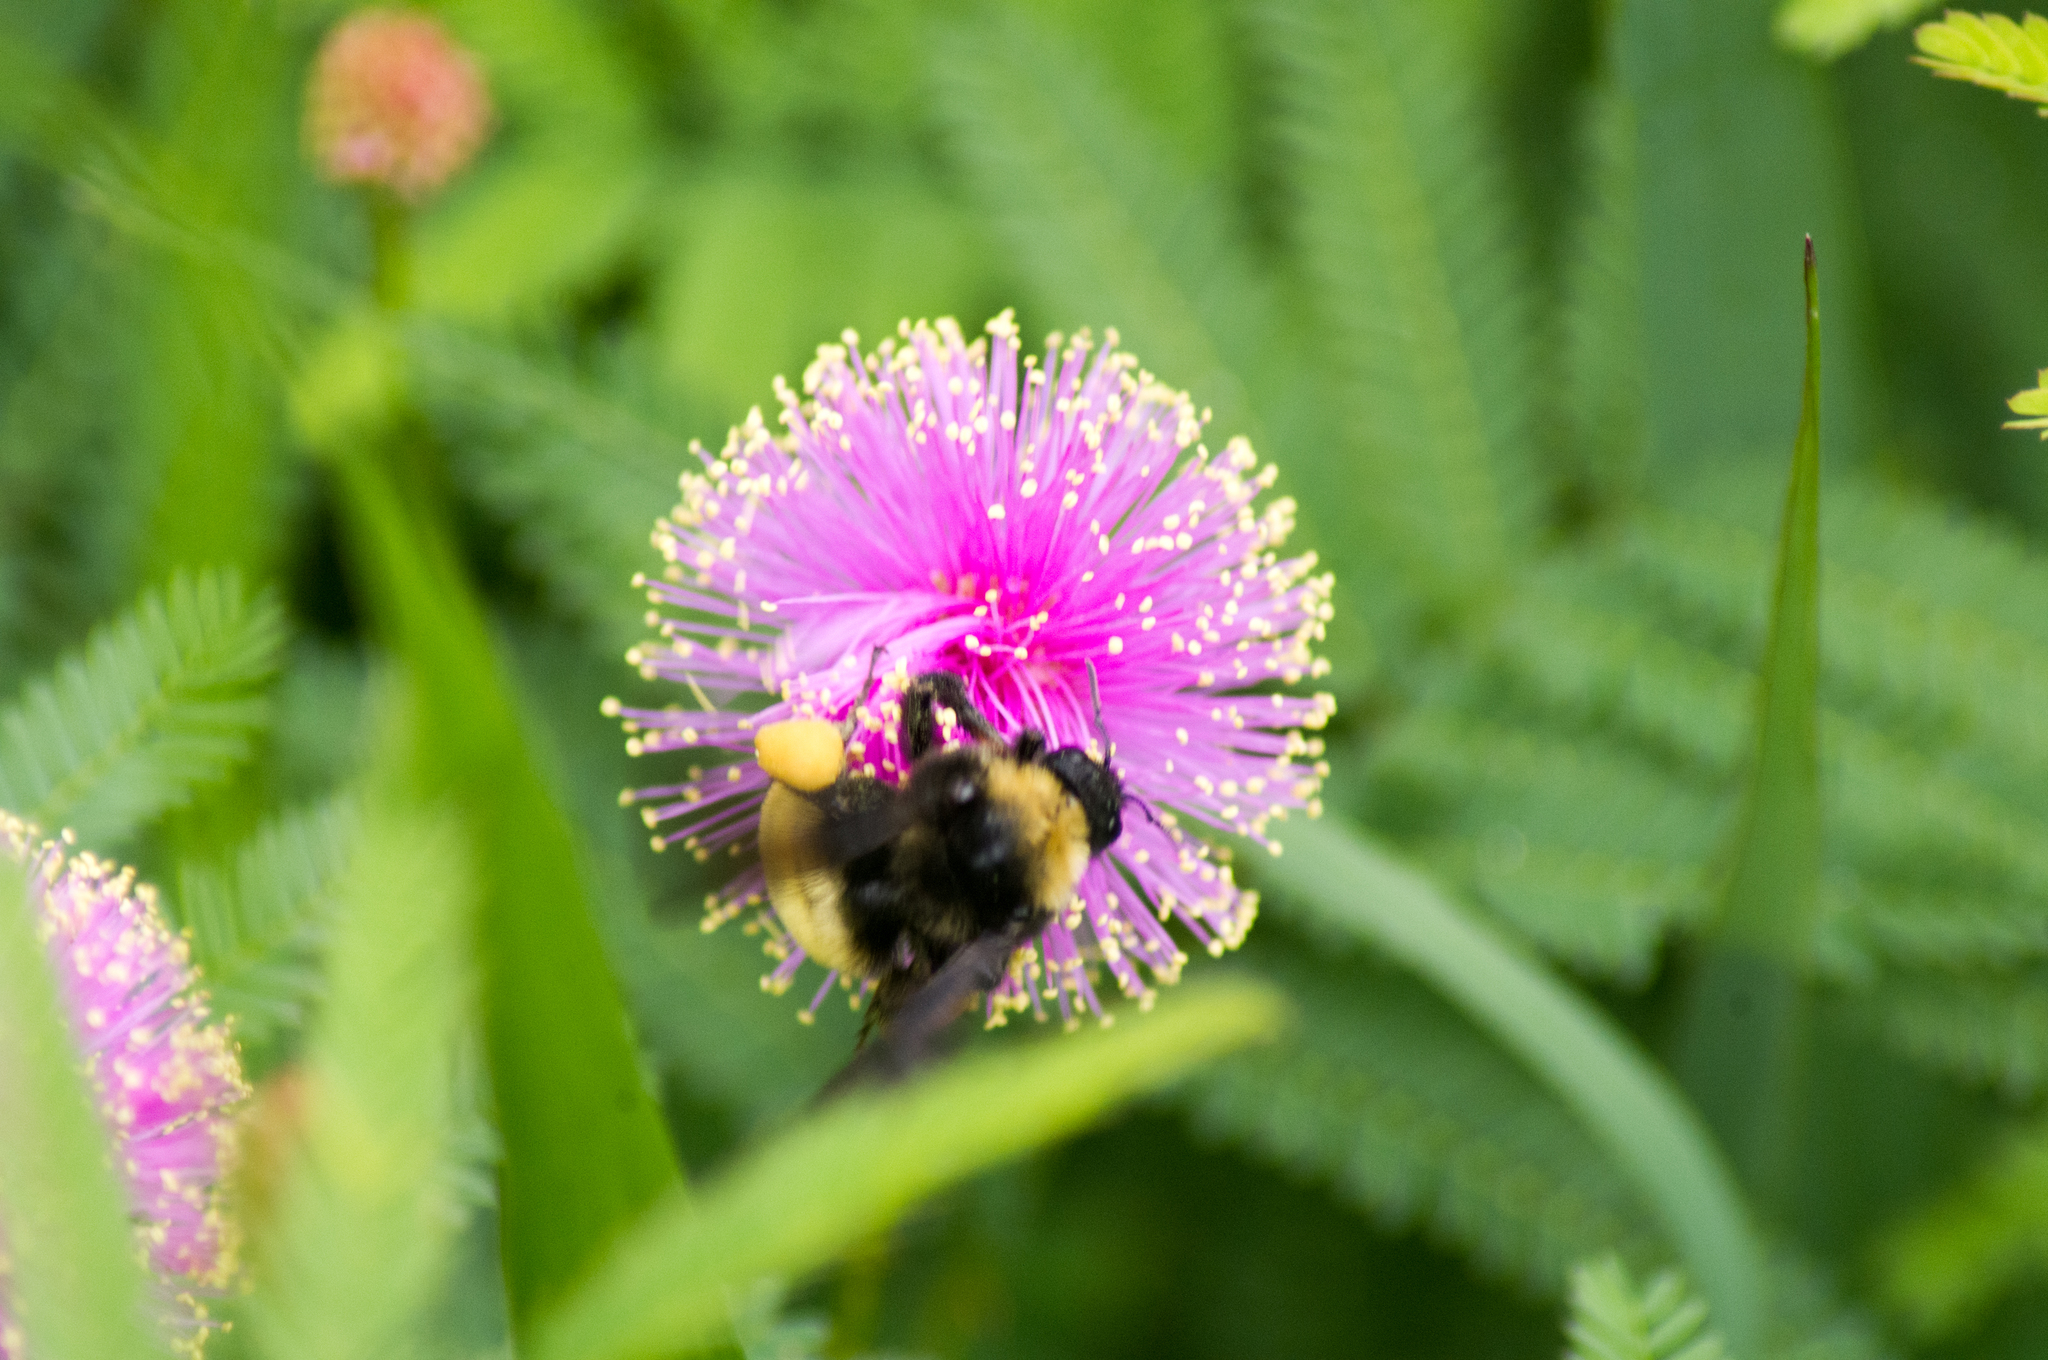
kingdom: Animalia
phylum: Arthropoda
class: Insecta
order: Hymenoptera
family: Apidae
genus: Bombus
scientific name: Bombus pensylvanicus
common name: Bumble bee
